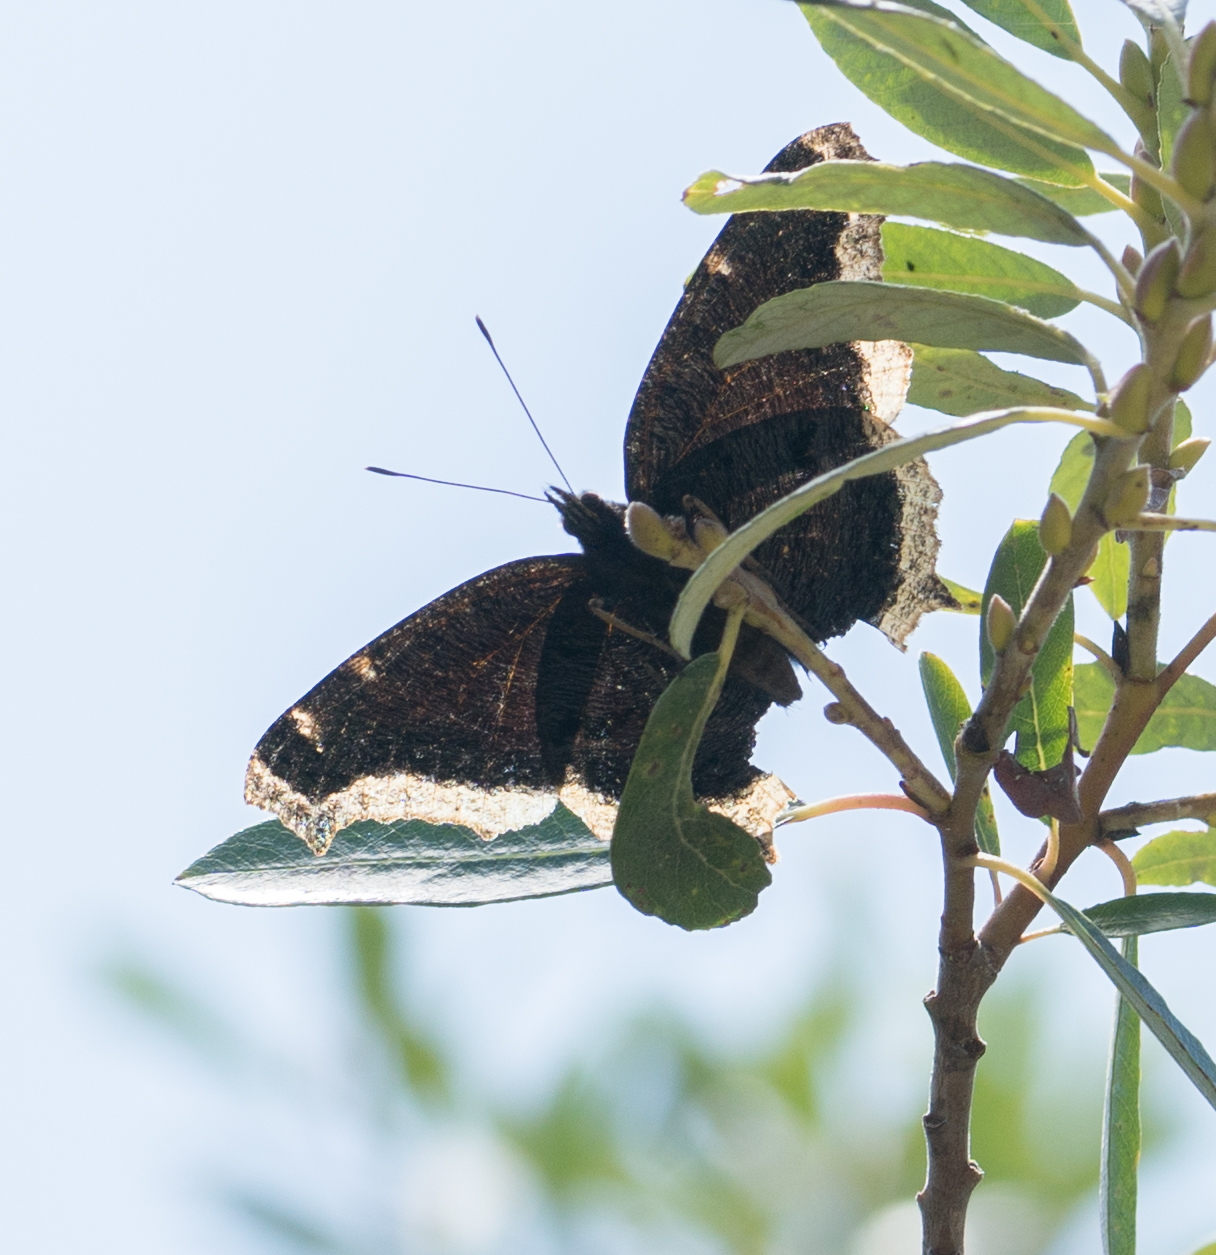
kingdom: Animalia
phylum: Arthropoda
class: Insecta
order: Lepidoptera
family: Nymphalidae
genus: Nymphalis
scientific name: Nymphalis antiopa
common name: Camberwell beauty
